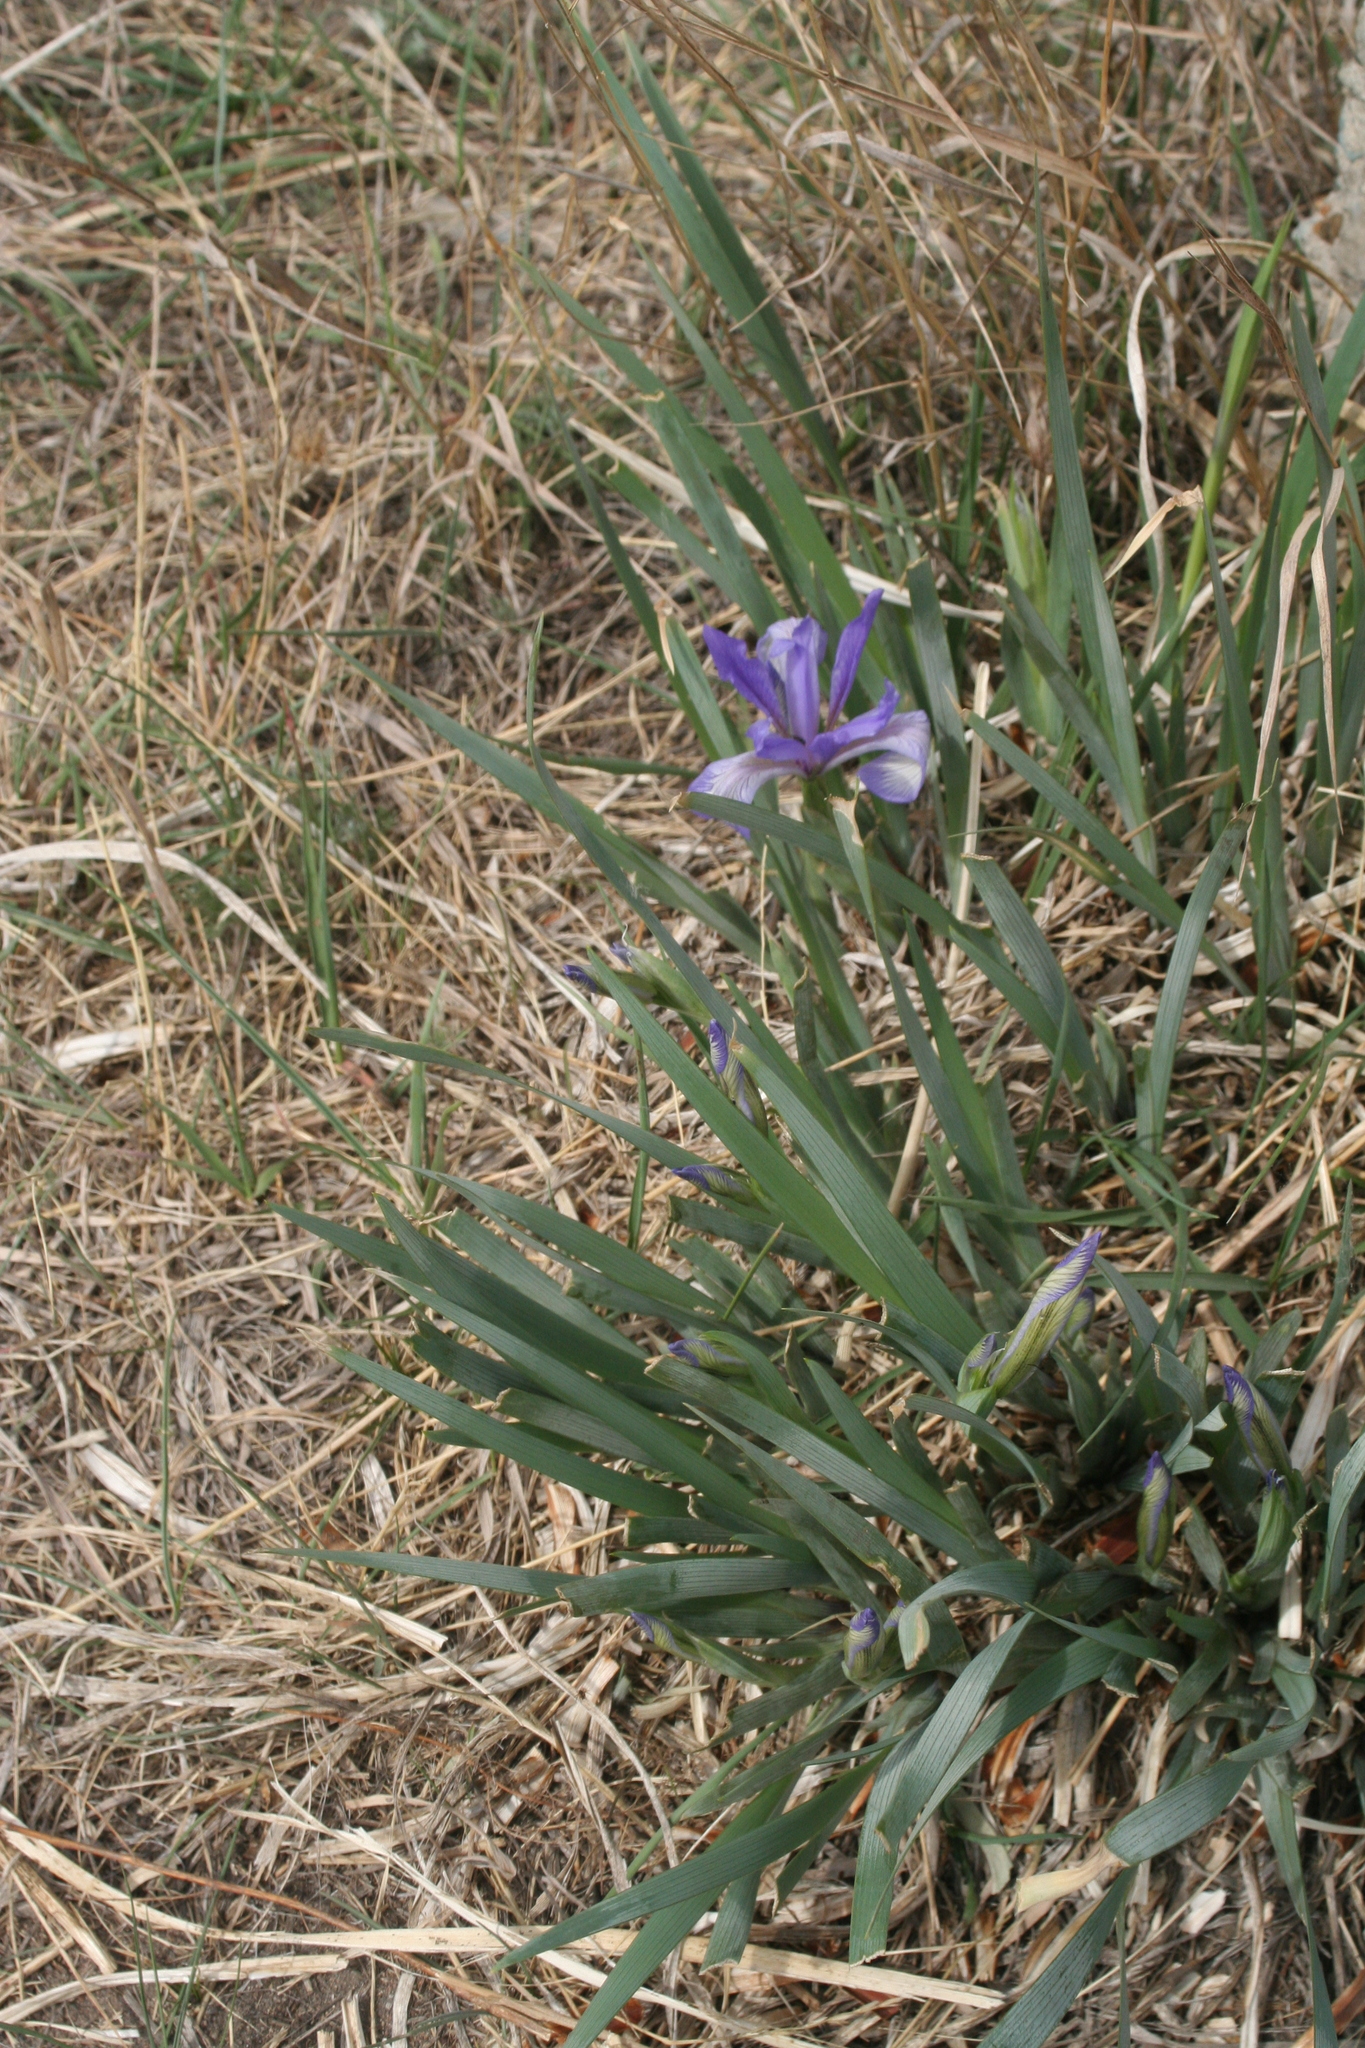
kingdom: Plantae
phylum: Tracheophyta
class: Liliopsida
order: Asparagales
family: Iridaceae
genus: Iris
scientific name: Iris lactea
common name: White-flower chinese iris
